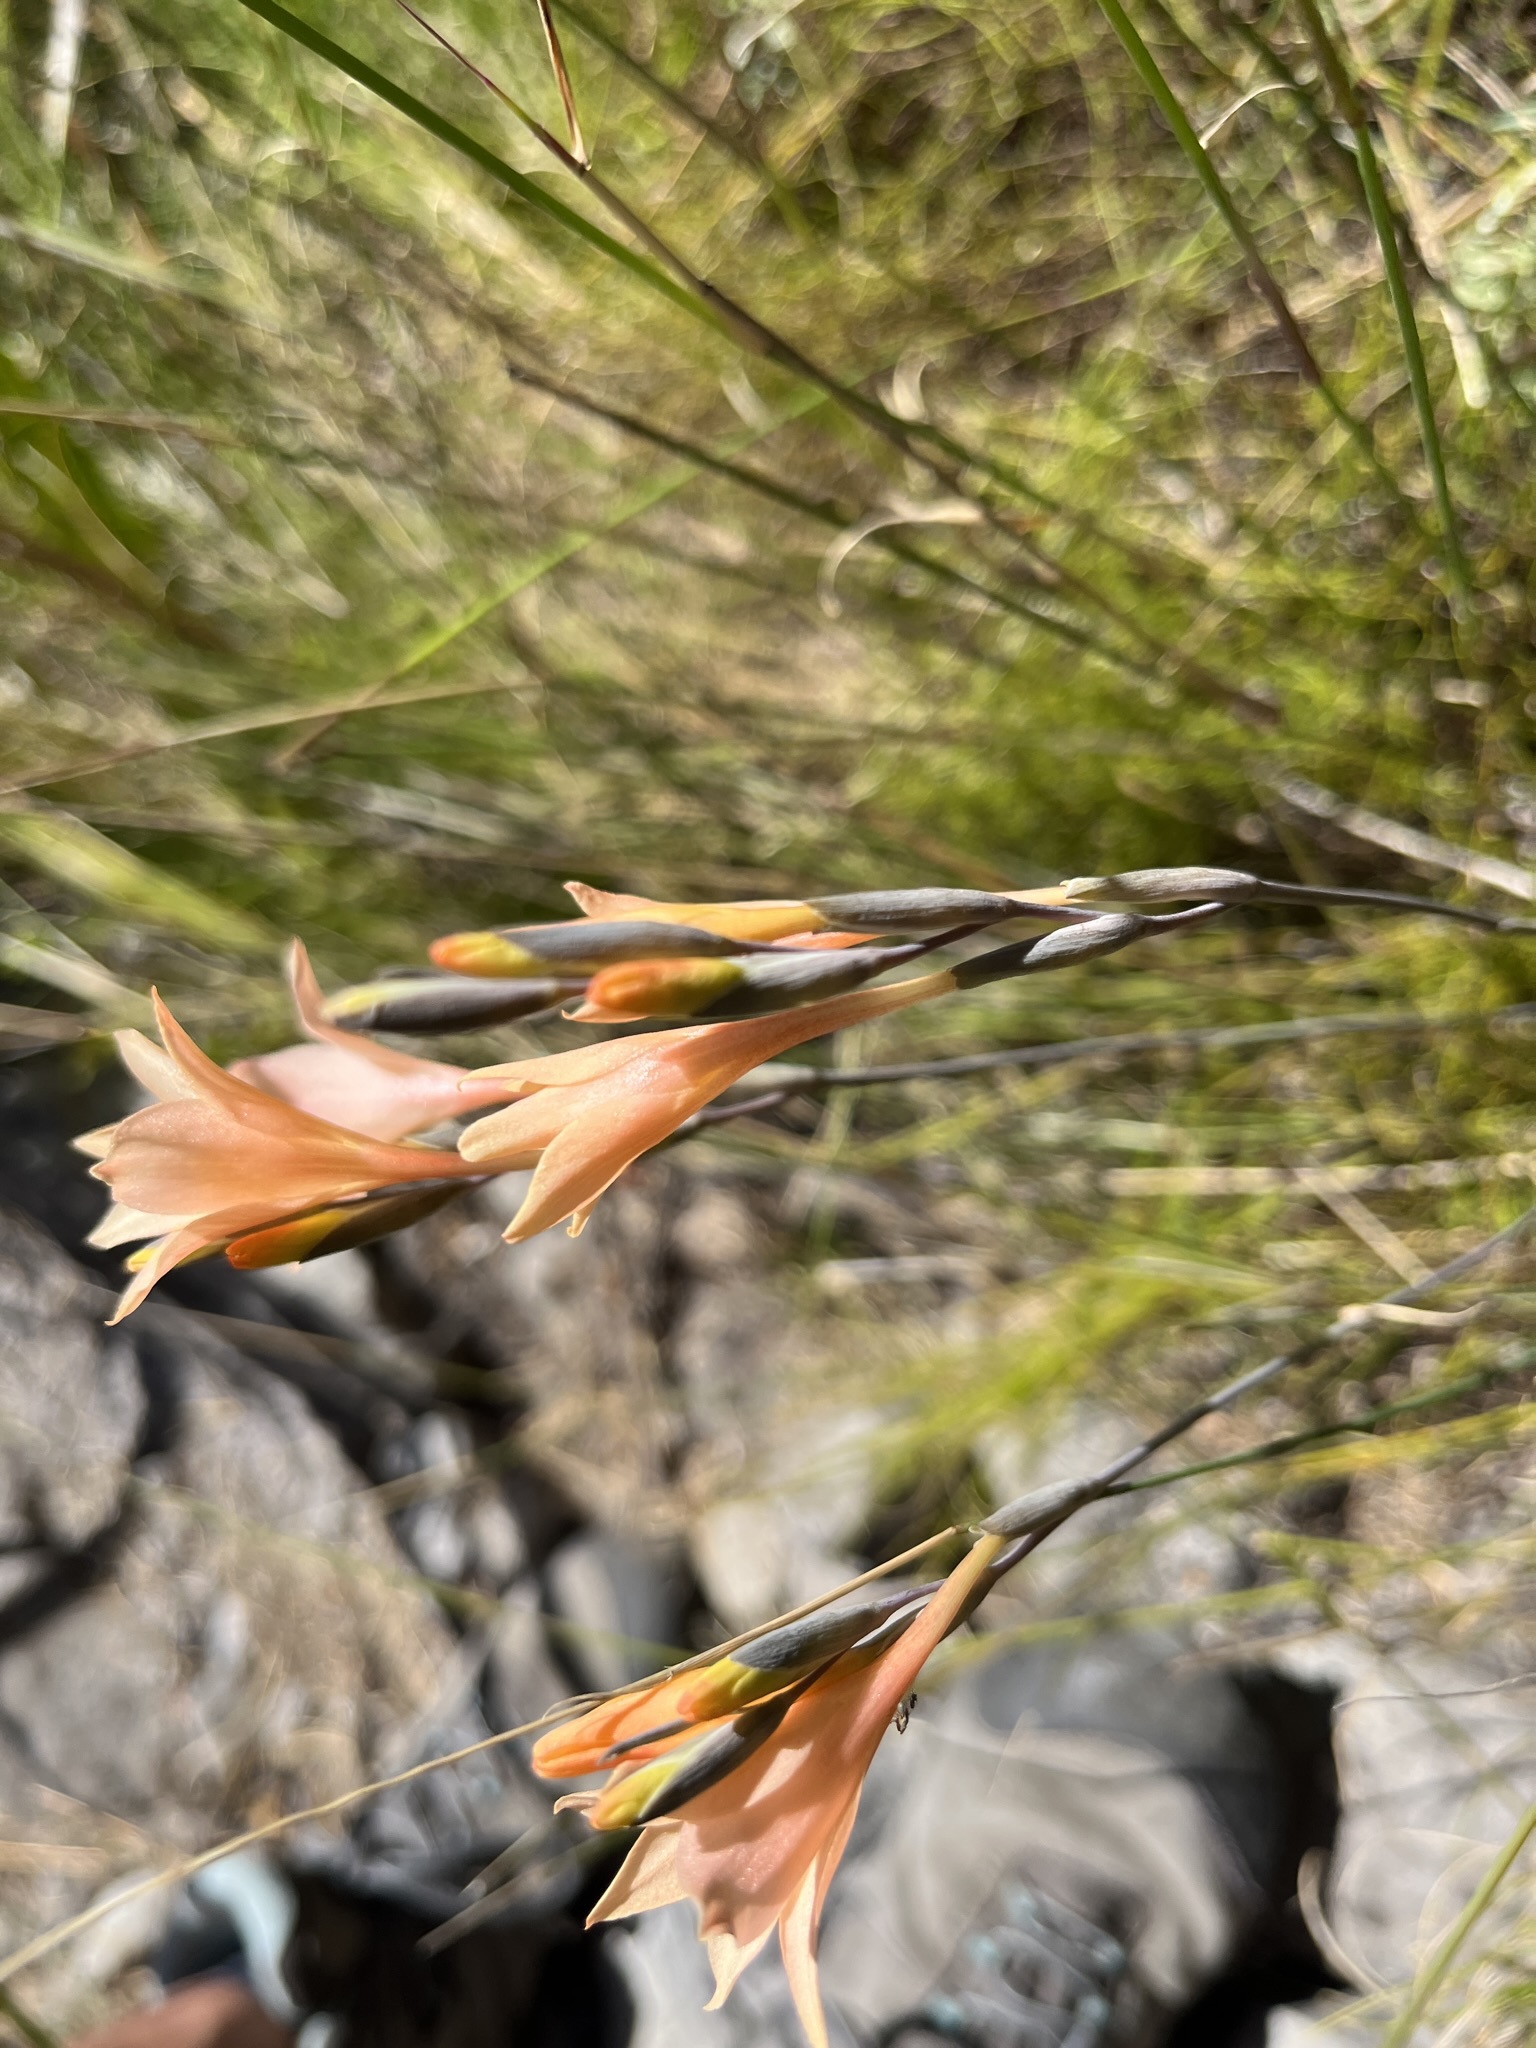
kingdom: Plantae
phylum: Tracheophyta
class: Liliopsida
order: Asparagales
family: Iridaceae
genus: Gladiolus
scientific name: Gladiolus monticola
